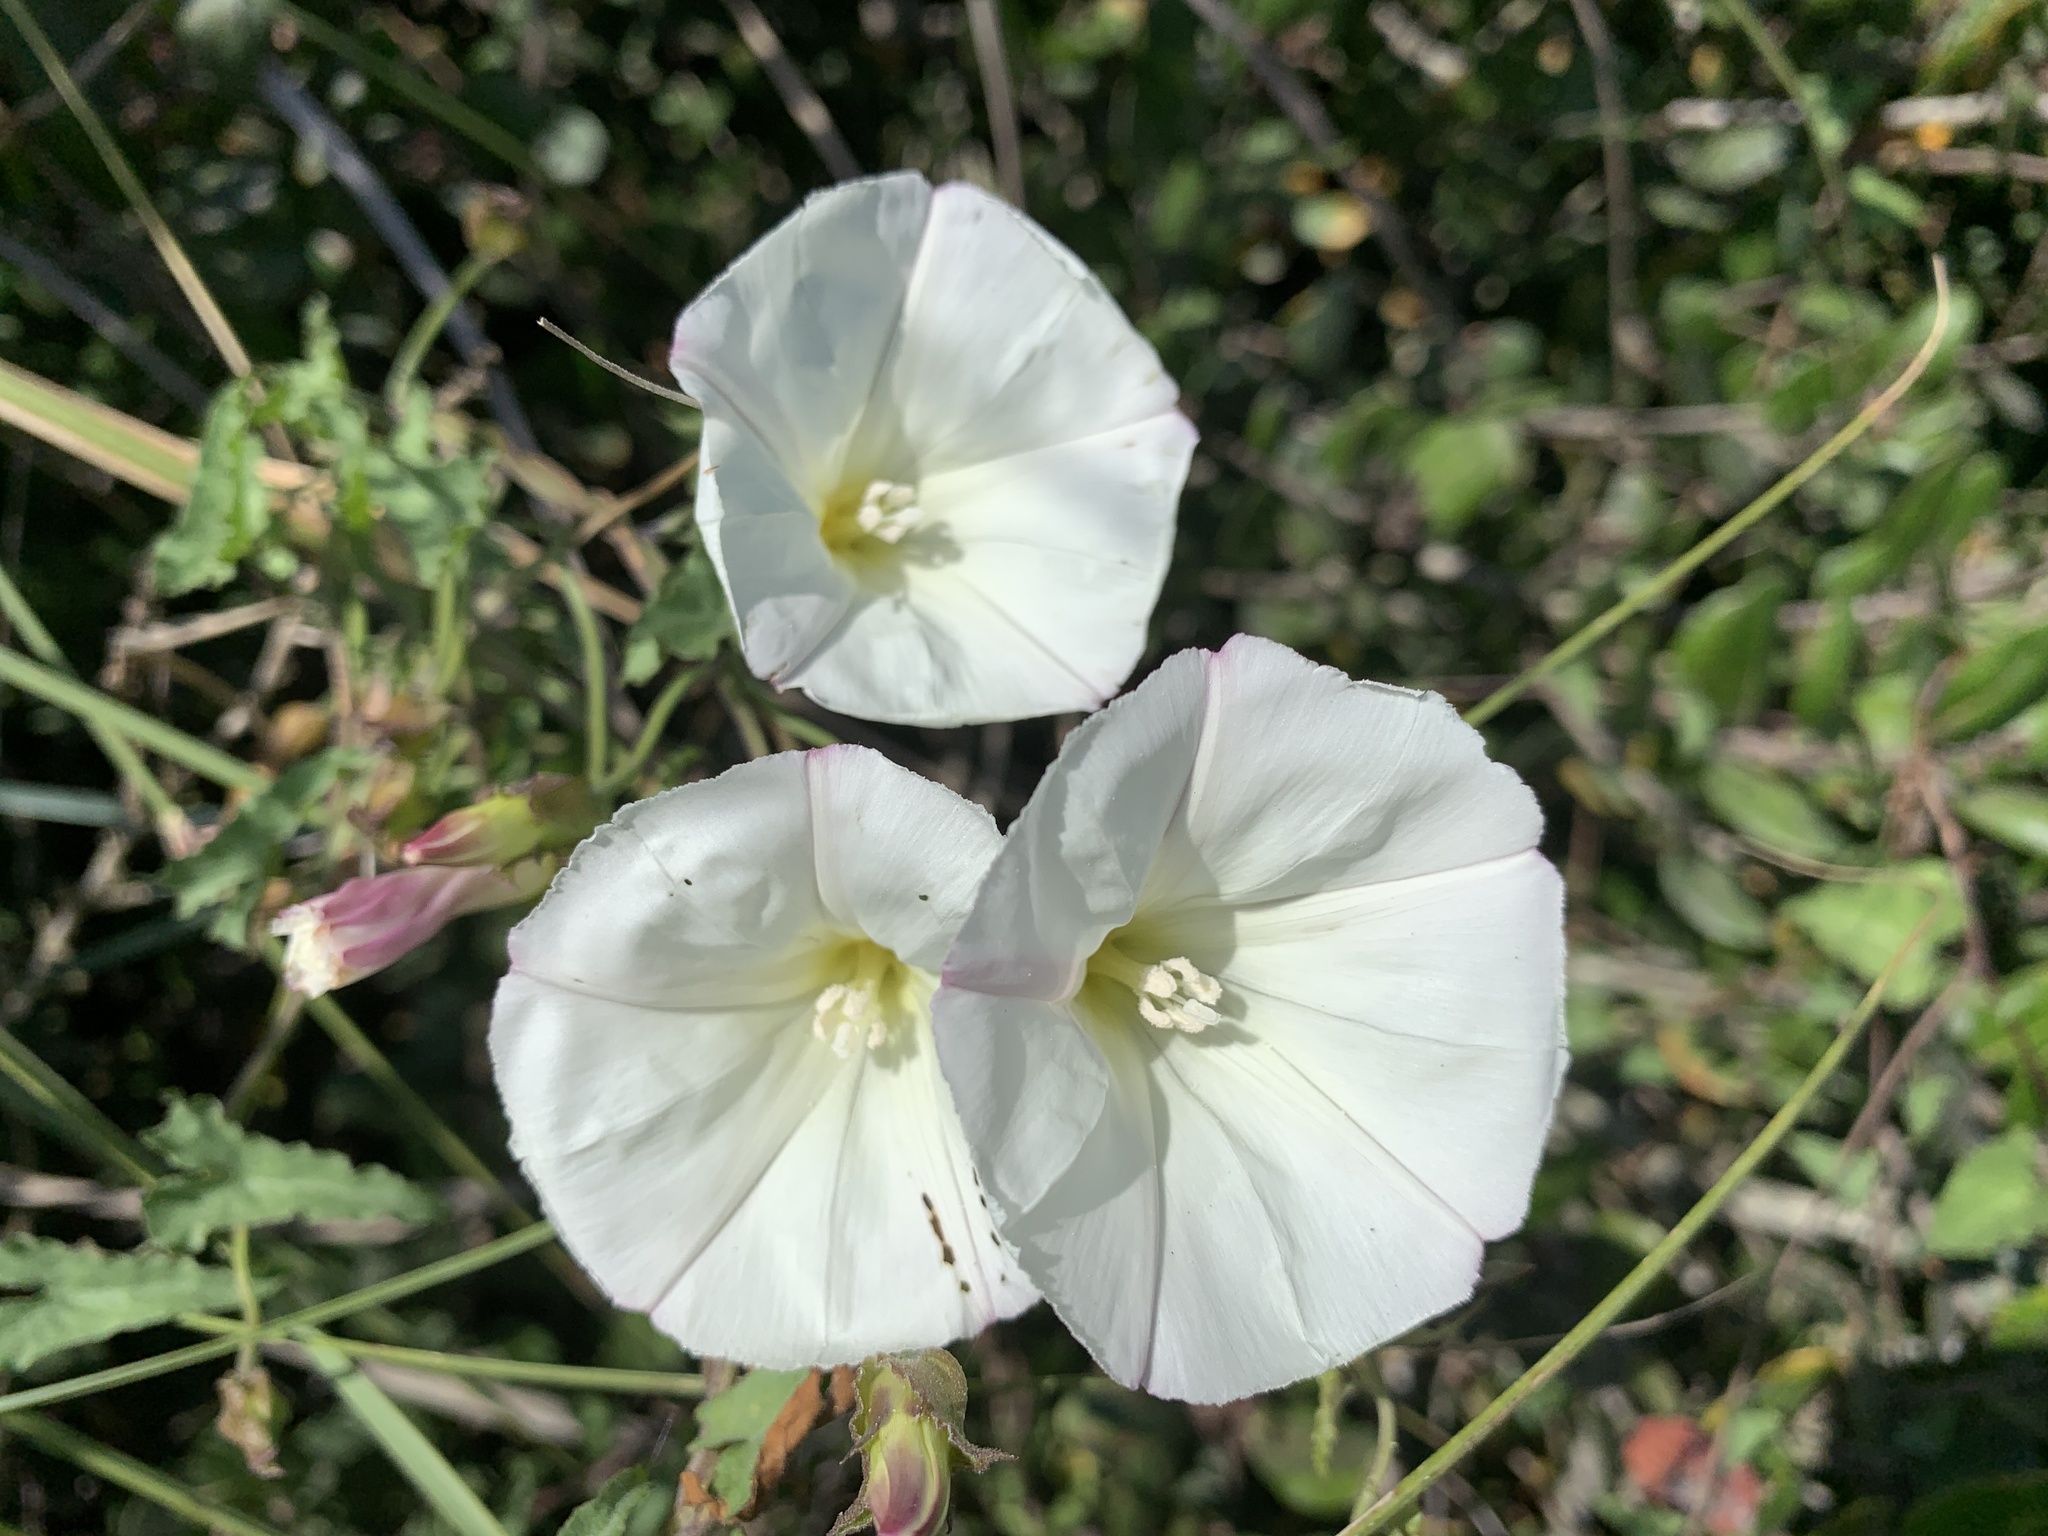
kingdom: Plantae
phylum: Tracheophyta
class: Magnoliopsida
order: Solanales
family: Convolvulaceae
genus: Calystegia
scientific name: Calystegia macrostegia
